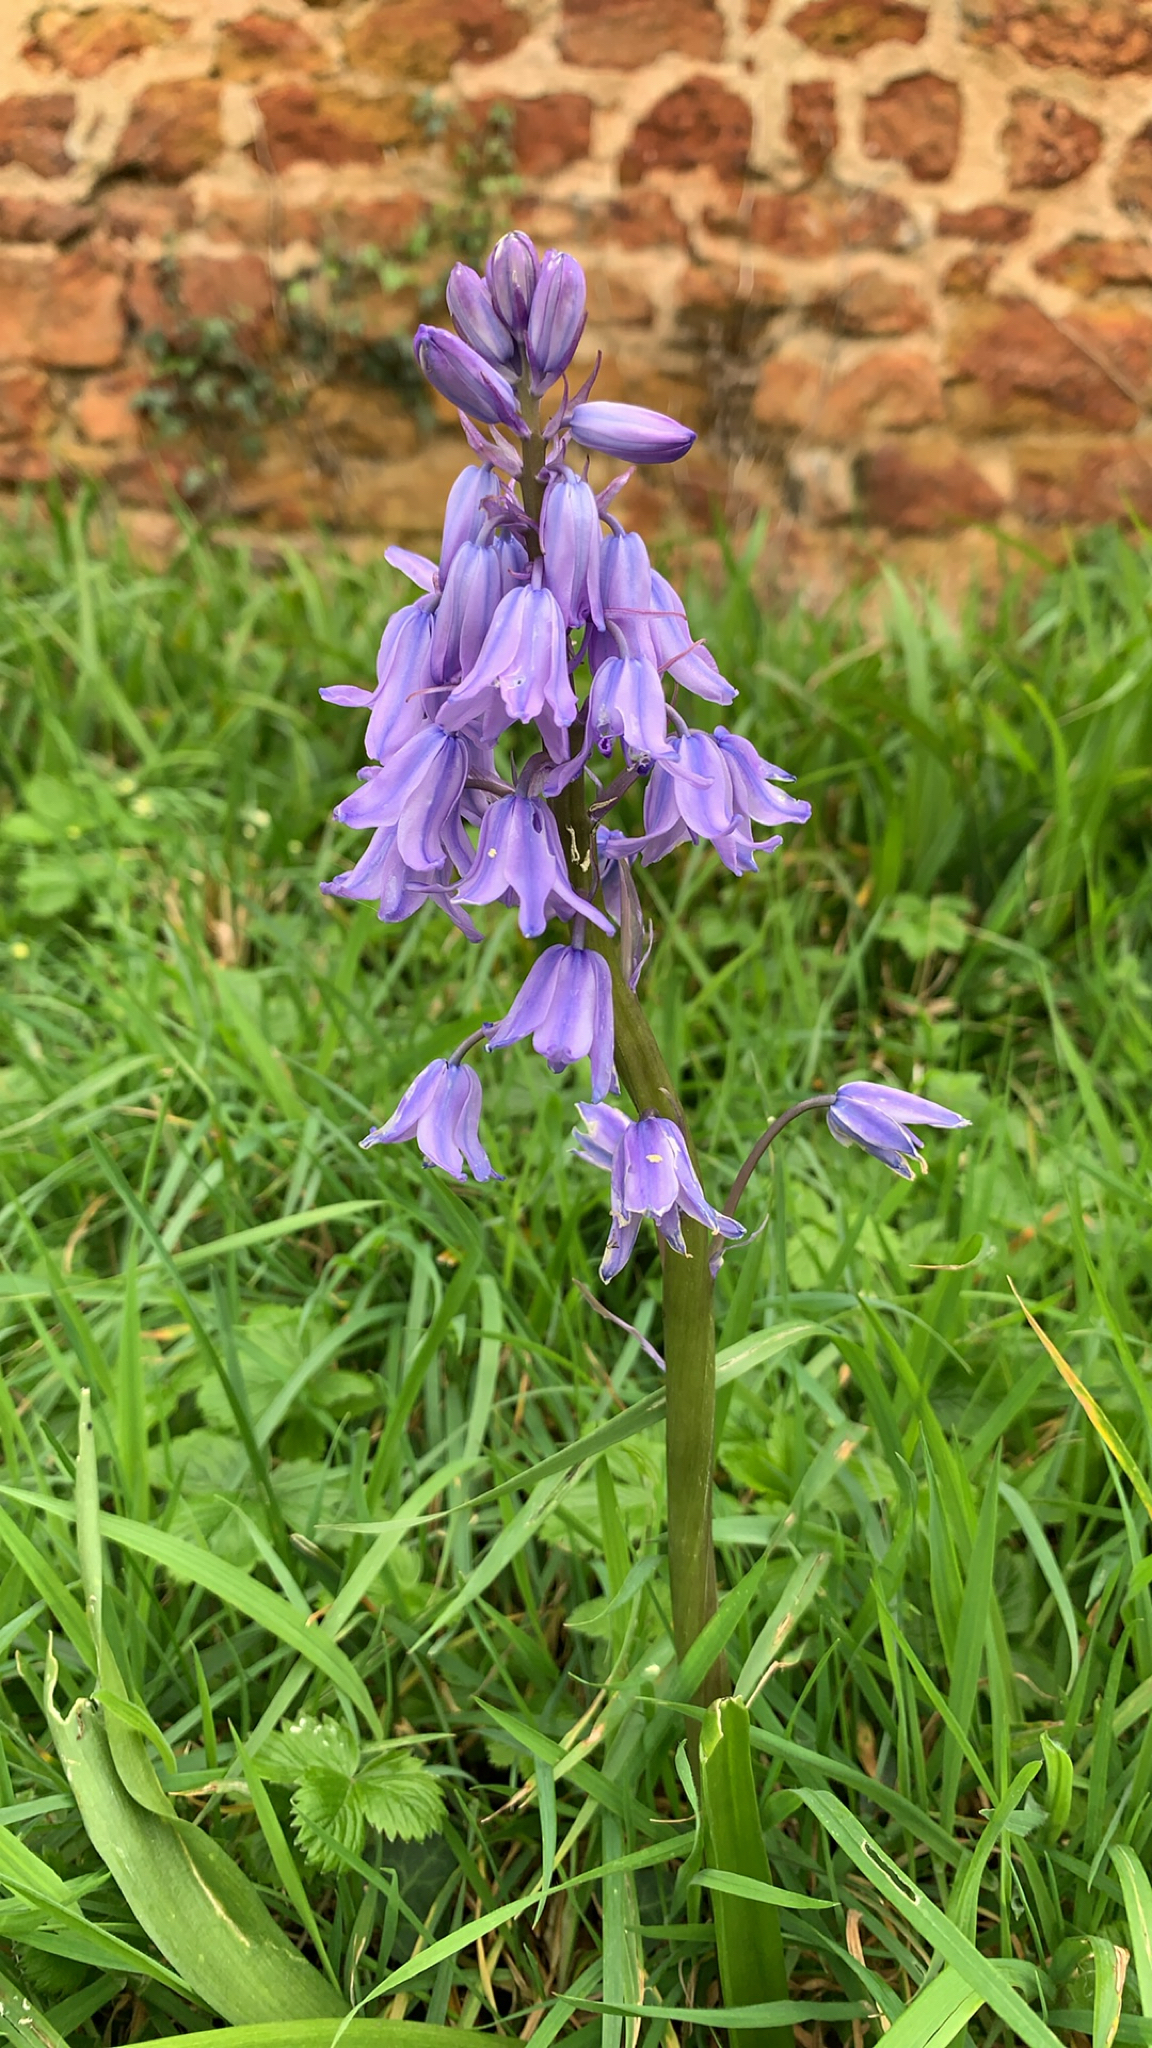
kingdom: Plantae
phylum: Tracheophyta
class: Liliopsida
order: Asparagales
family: Asparagaceae
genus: Hyacinthoides
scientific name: Hyacinthoides hispanica
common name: Spanish bluebell
